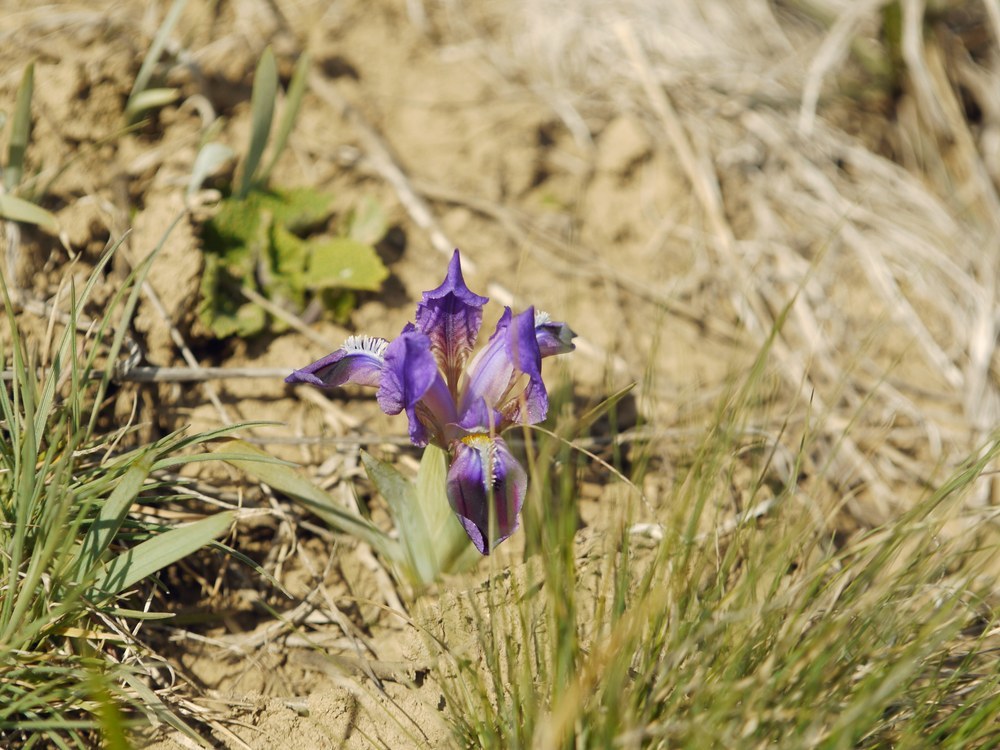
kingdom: Plantae
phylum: Tracheophyta
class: Liliopsida
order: Asparagales
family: Iridaceae
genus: Iris
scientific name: Iris pumila
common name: Dwarf iris
